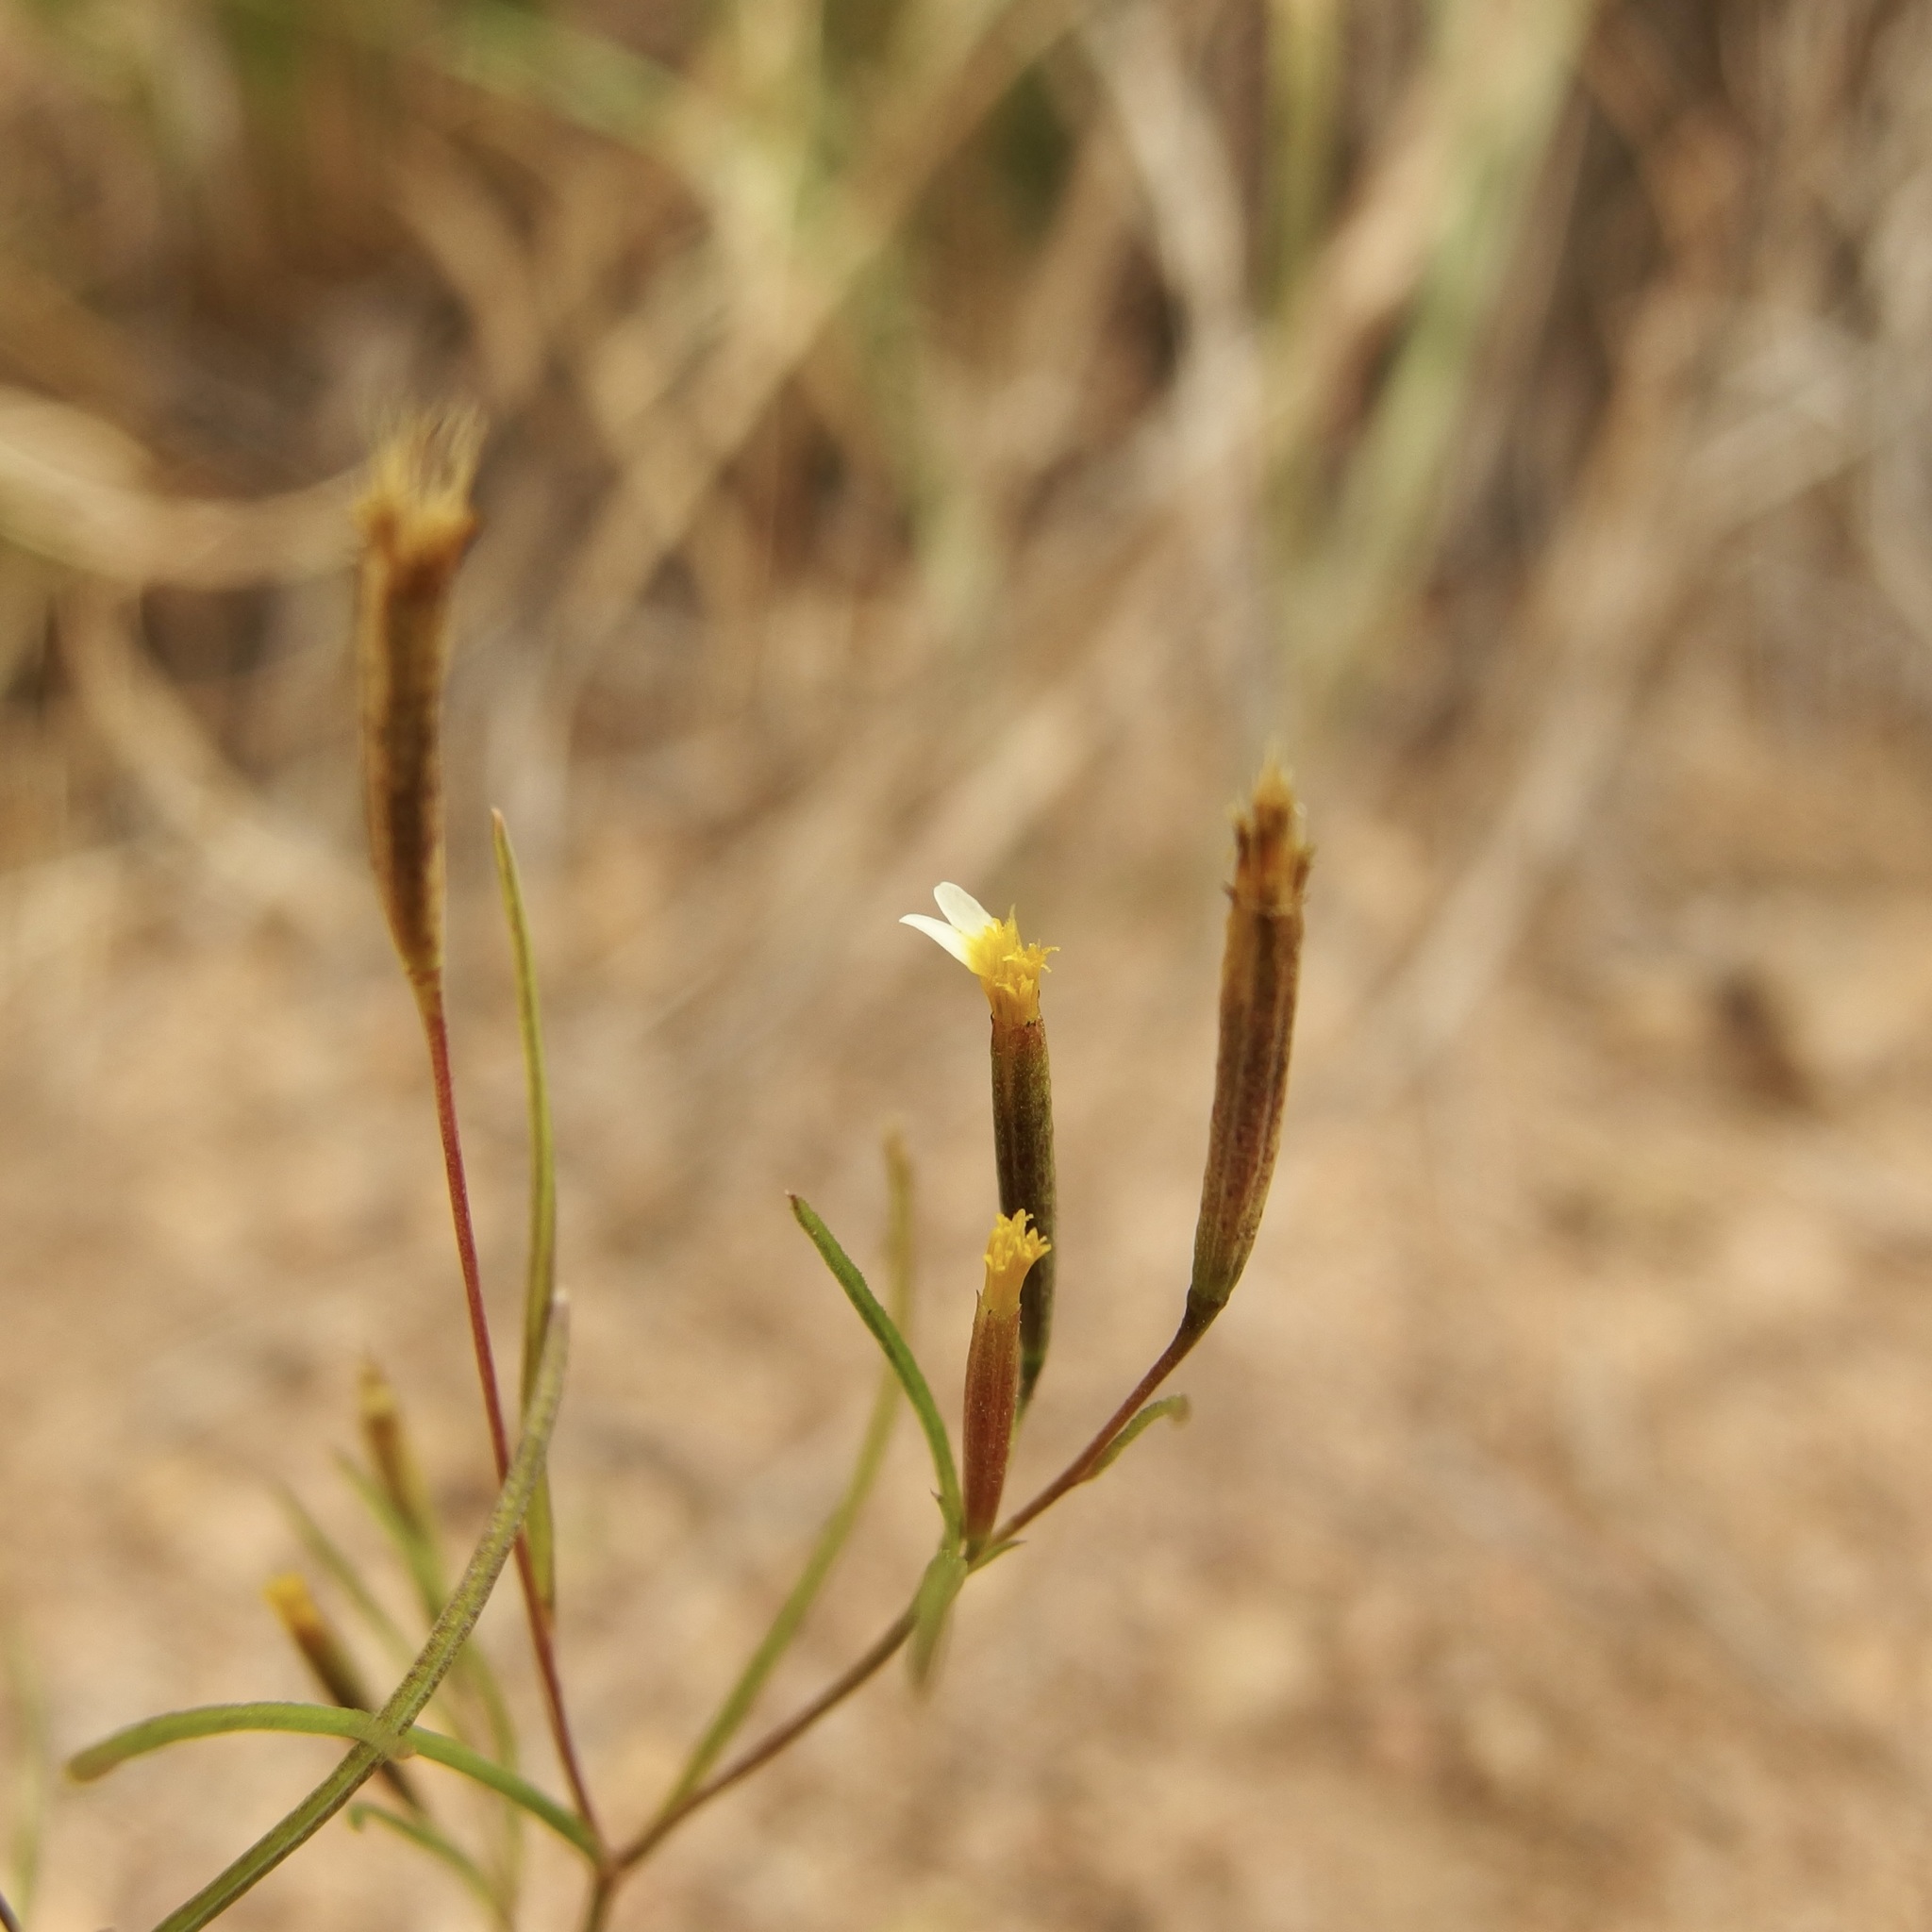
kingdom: Plantae
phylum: Tracheophyta
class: Magnoliopsida
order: Asterales
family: Asteraceae
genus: Tagetes
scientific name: Tagetes micrantha
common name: Licorice marigold
